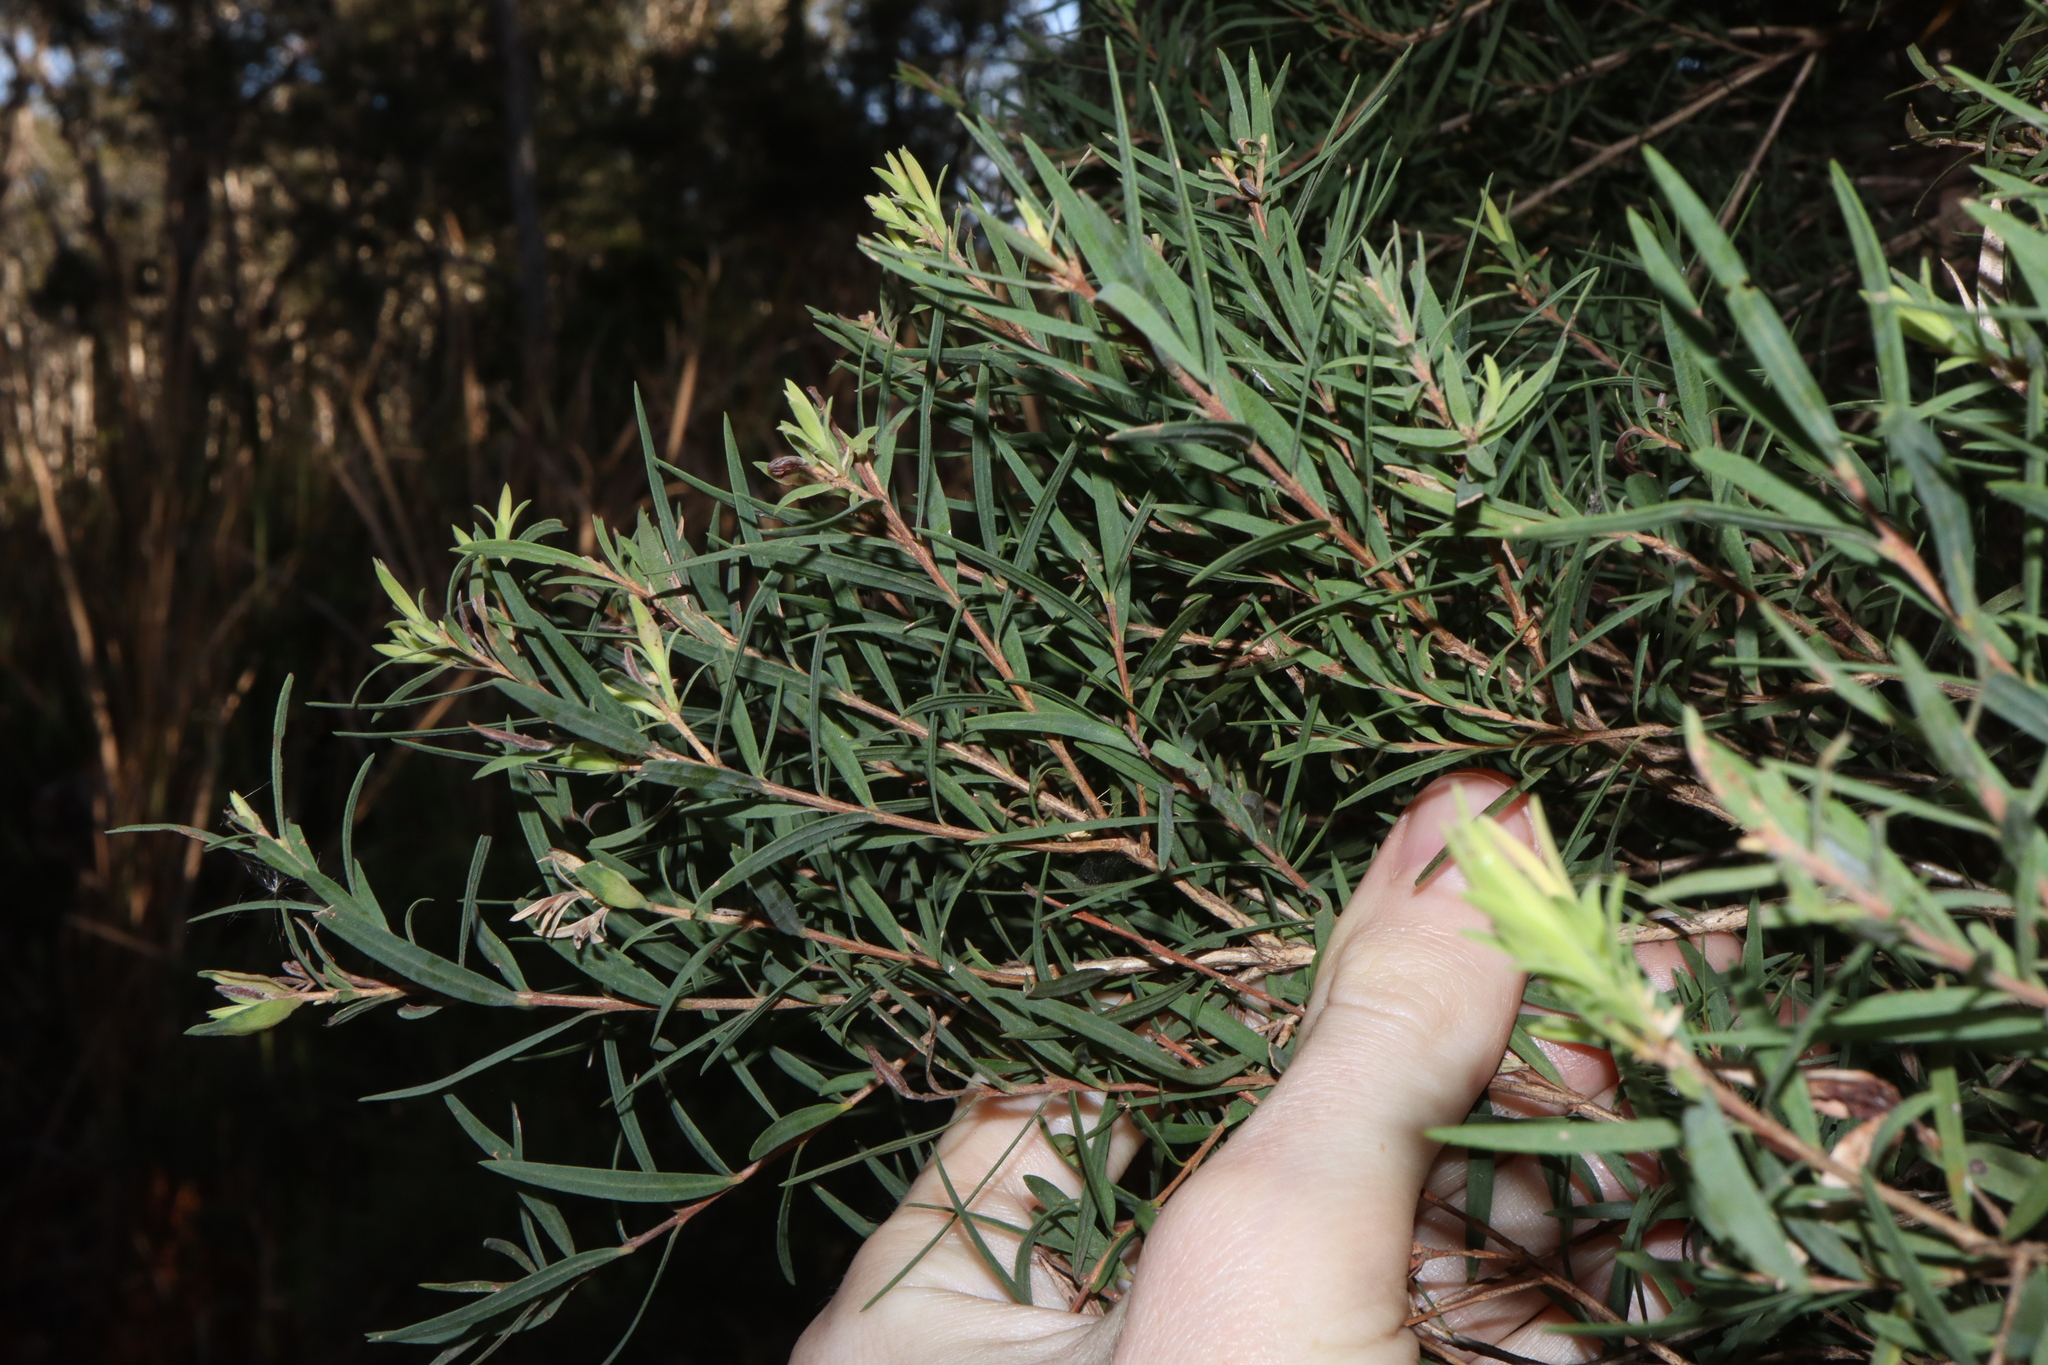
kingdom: Plantae
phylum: Tracheophyta
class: Magnoliopsida
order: Myrtales
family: Myrtaceae
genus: Melaleuca
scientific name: Melaleuca linariifolia
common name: Cajeput tree
